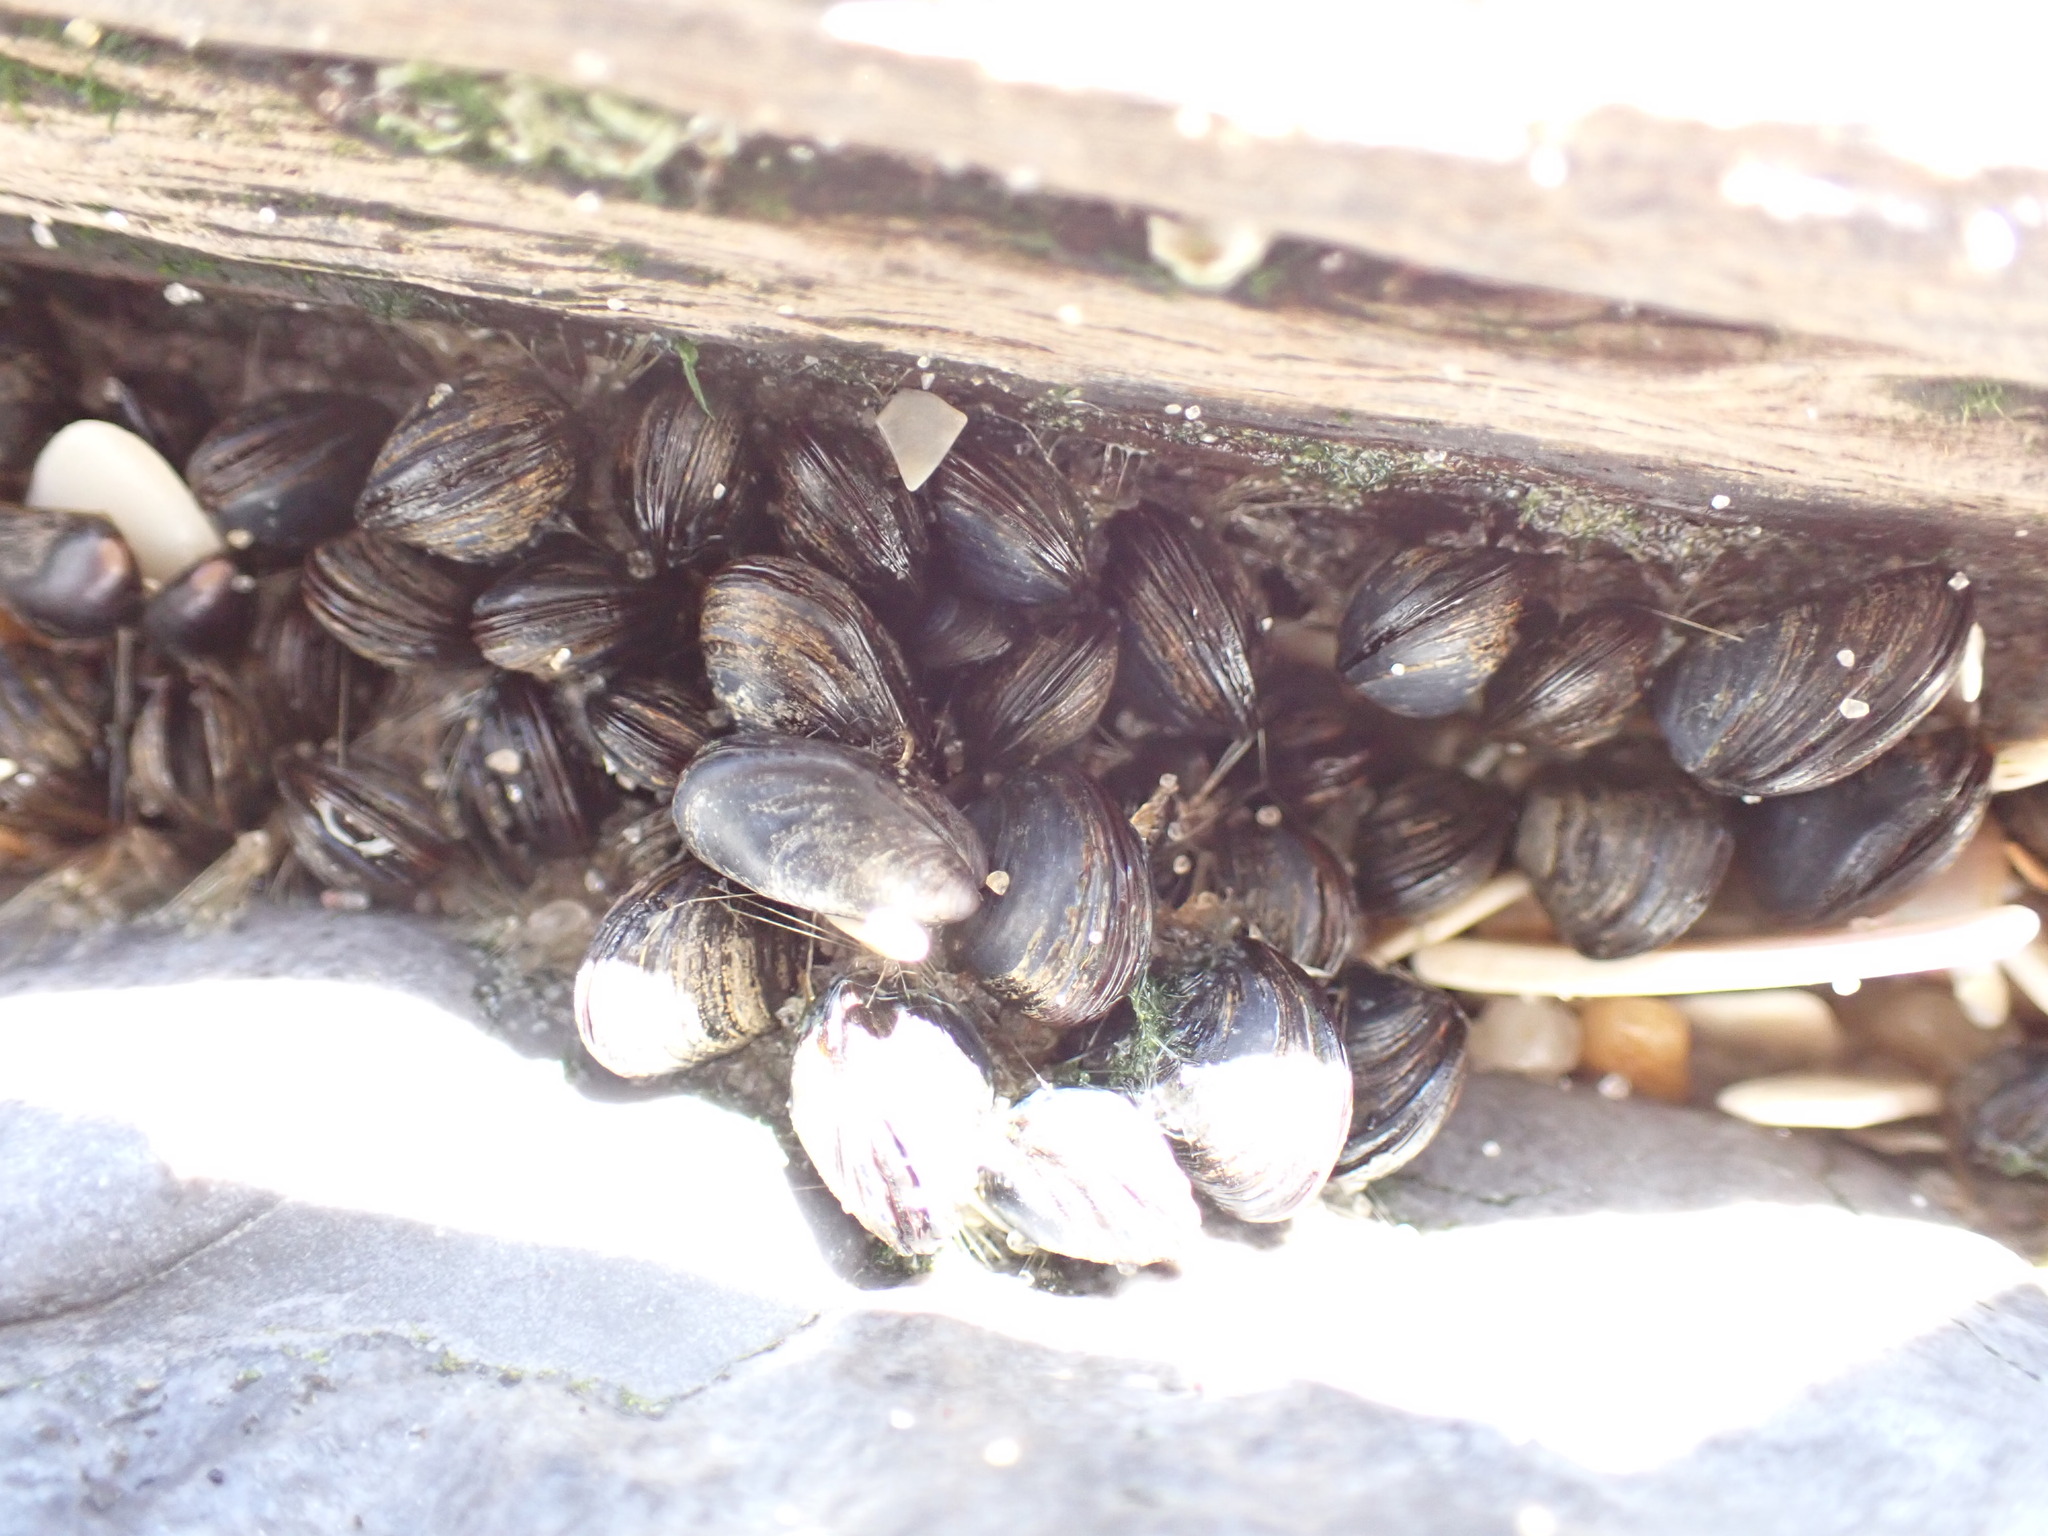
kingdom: Animalia
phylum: Mollusca
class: Bivalvia
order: Mytilida
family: Mytilidae
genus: Mytilus
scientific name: Mytilus edulis
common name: Blue mussel
